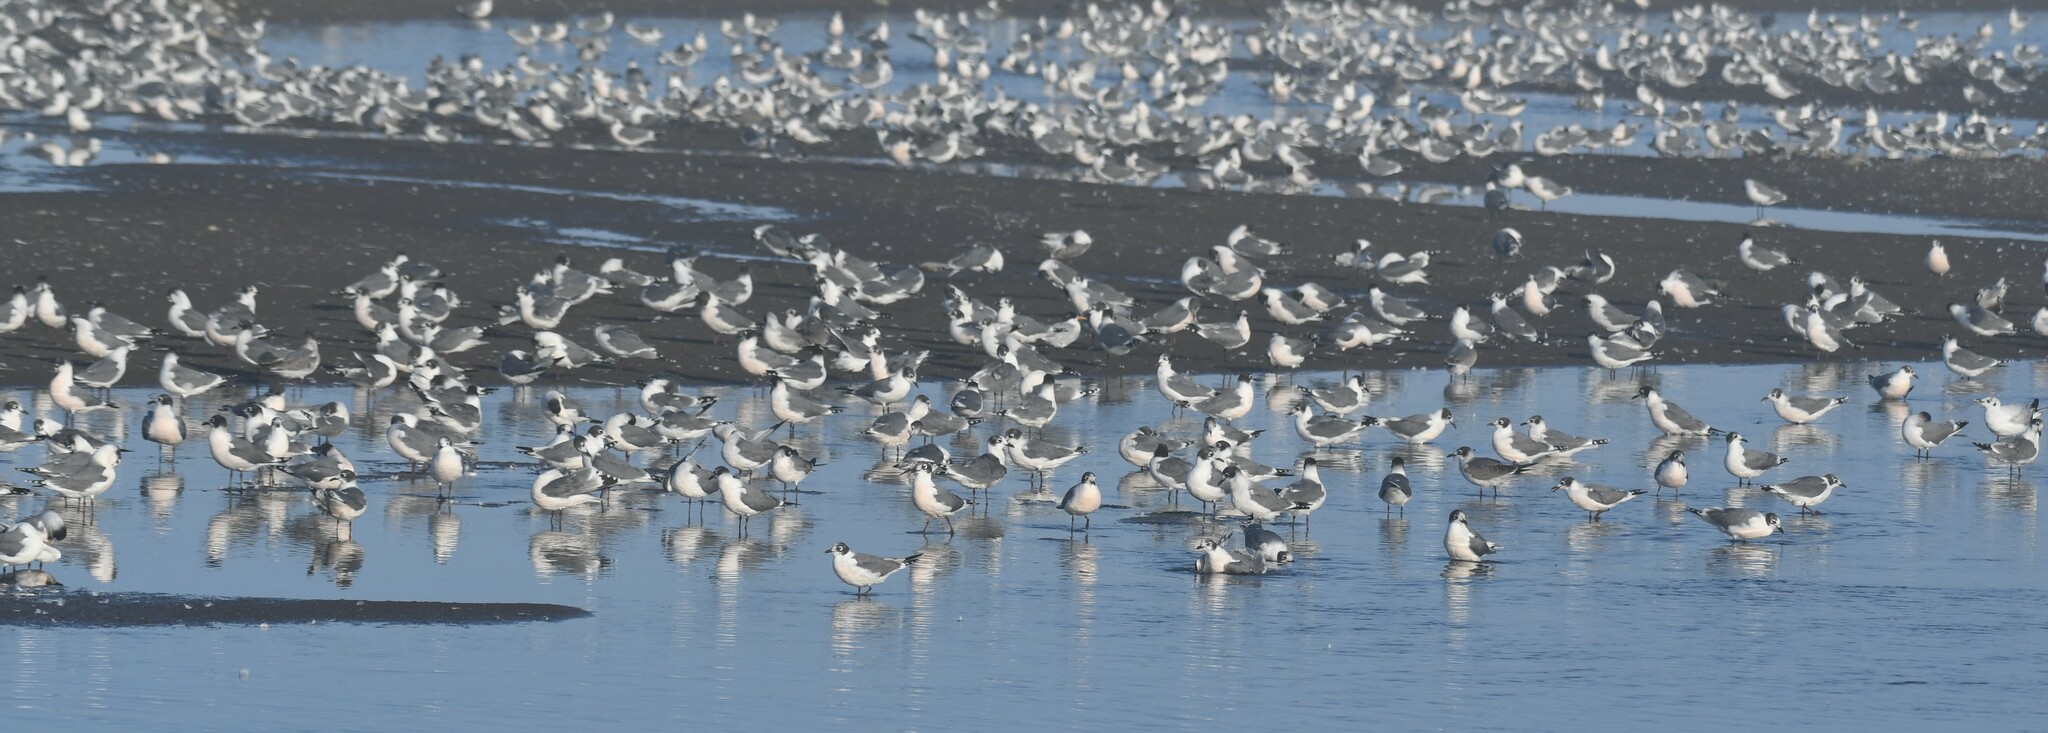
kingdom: Animalia
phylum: Chordata
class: Aves
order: Charadriiformes
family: Laridae
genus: Leucophaeus
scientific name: Leucophaeus pipixcan
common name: Franklin's gull
